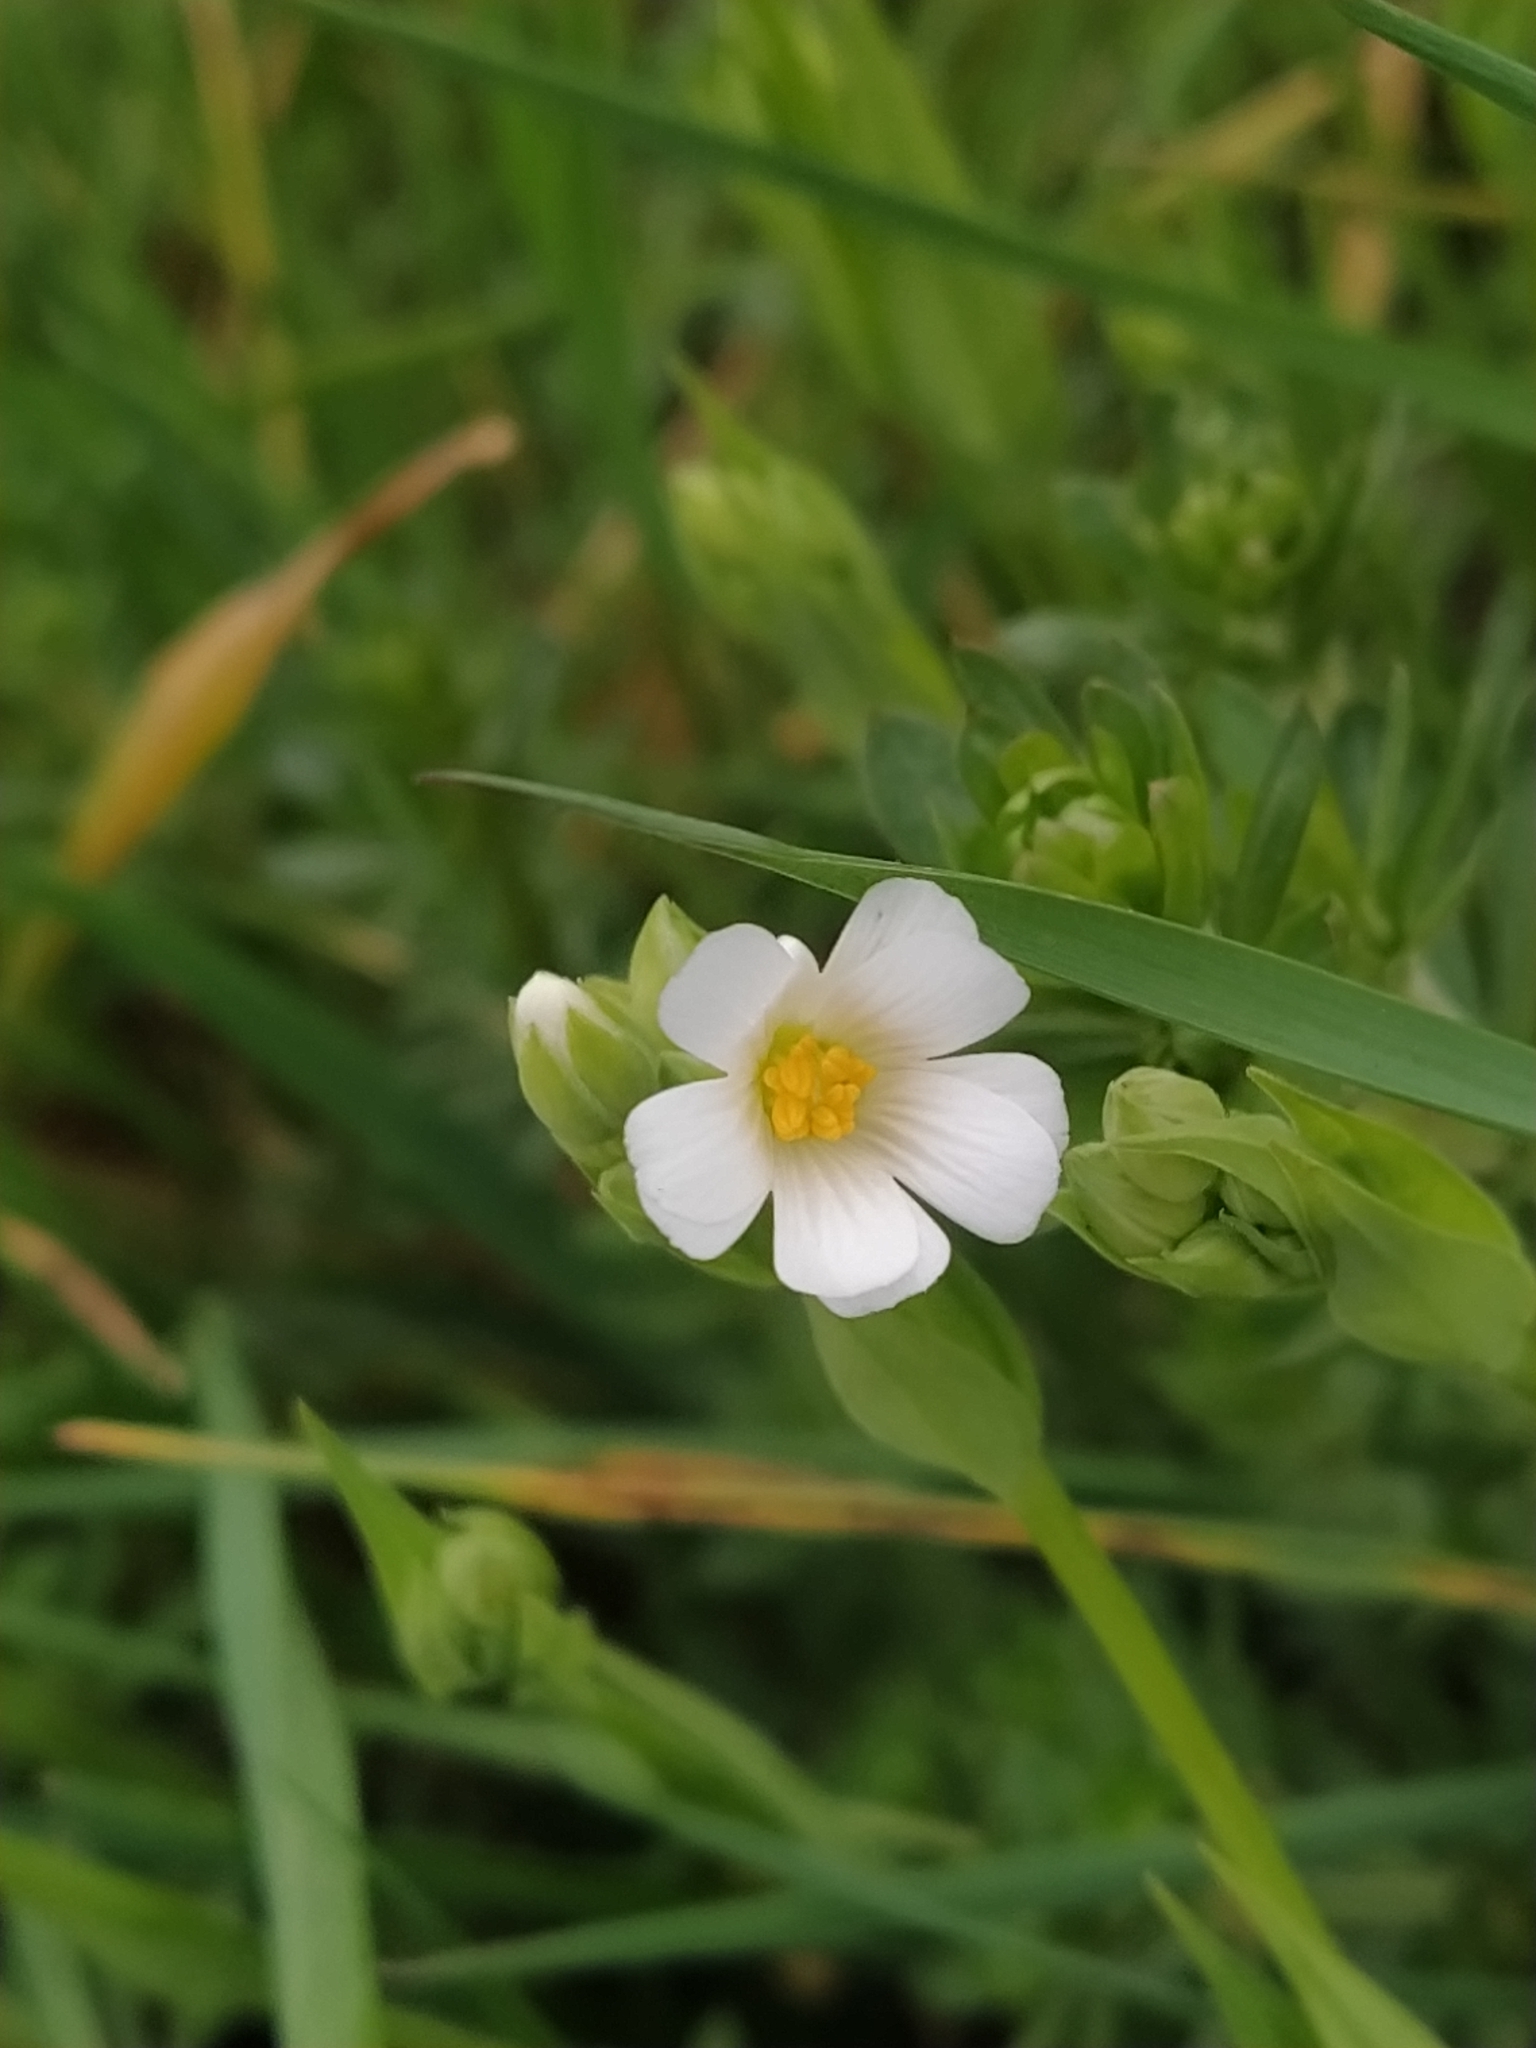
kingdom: Plantae
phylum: Tracheophyta
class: Magnoliopsida
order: Caryophyllales
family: Caryophyllaceae
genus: Rabelera
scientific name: Rabelera holostea
